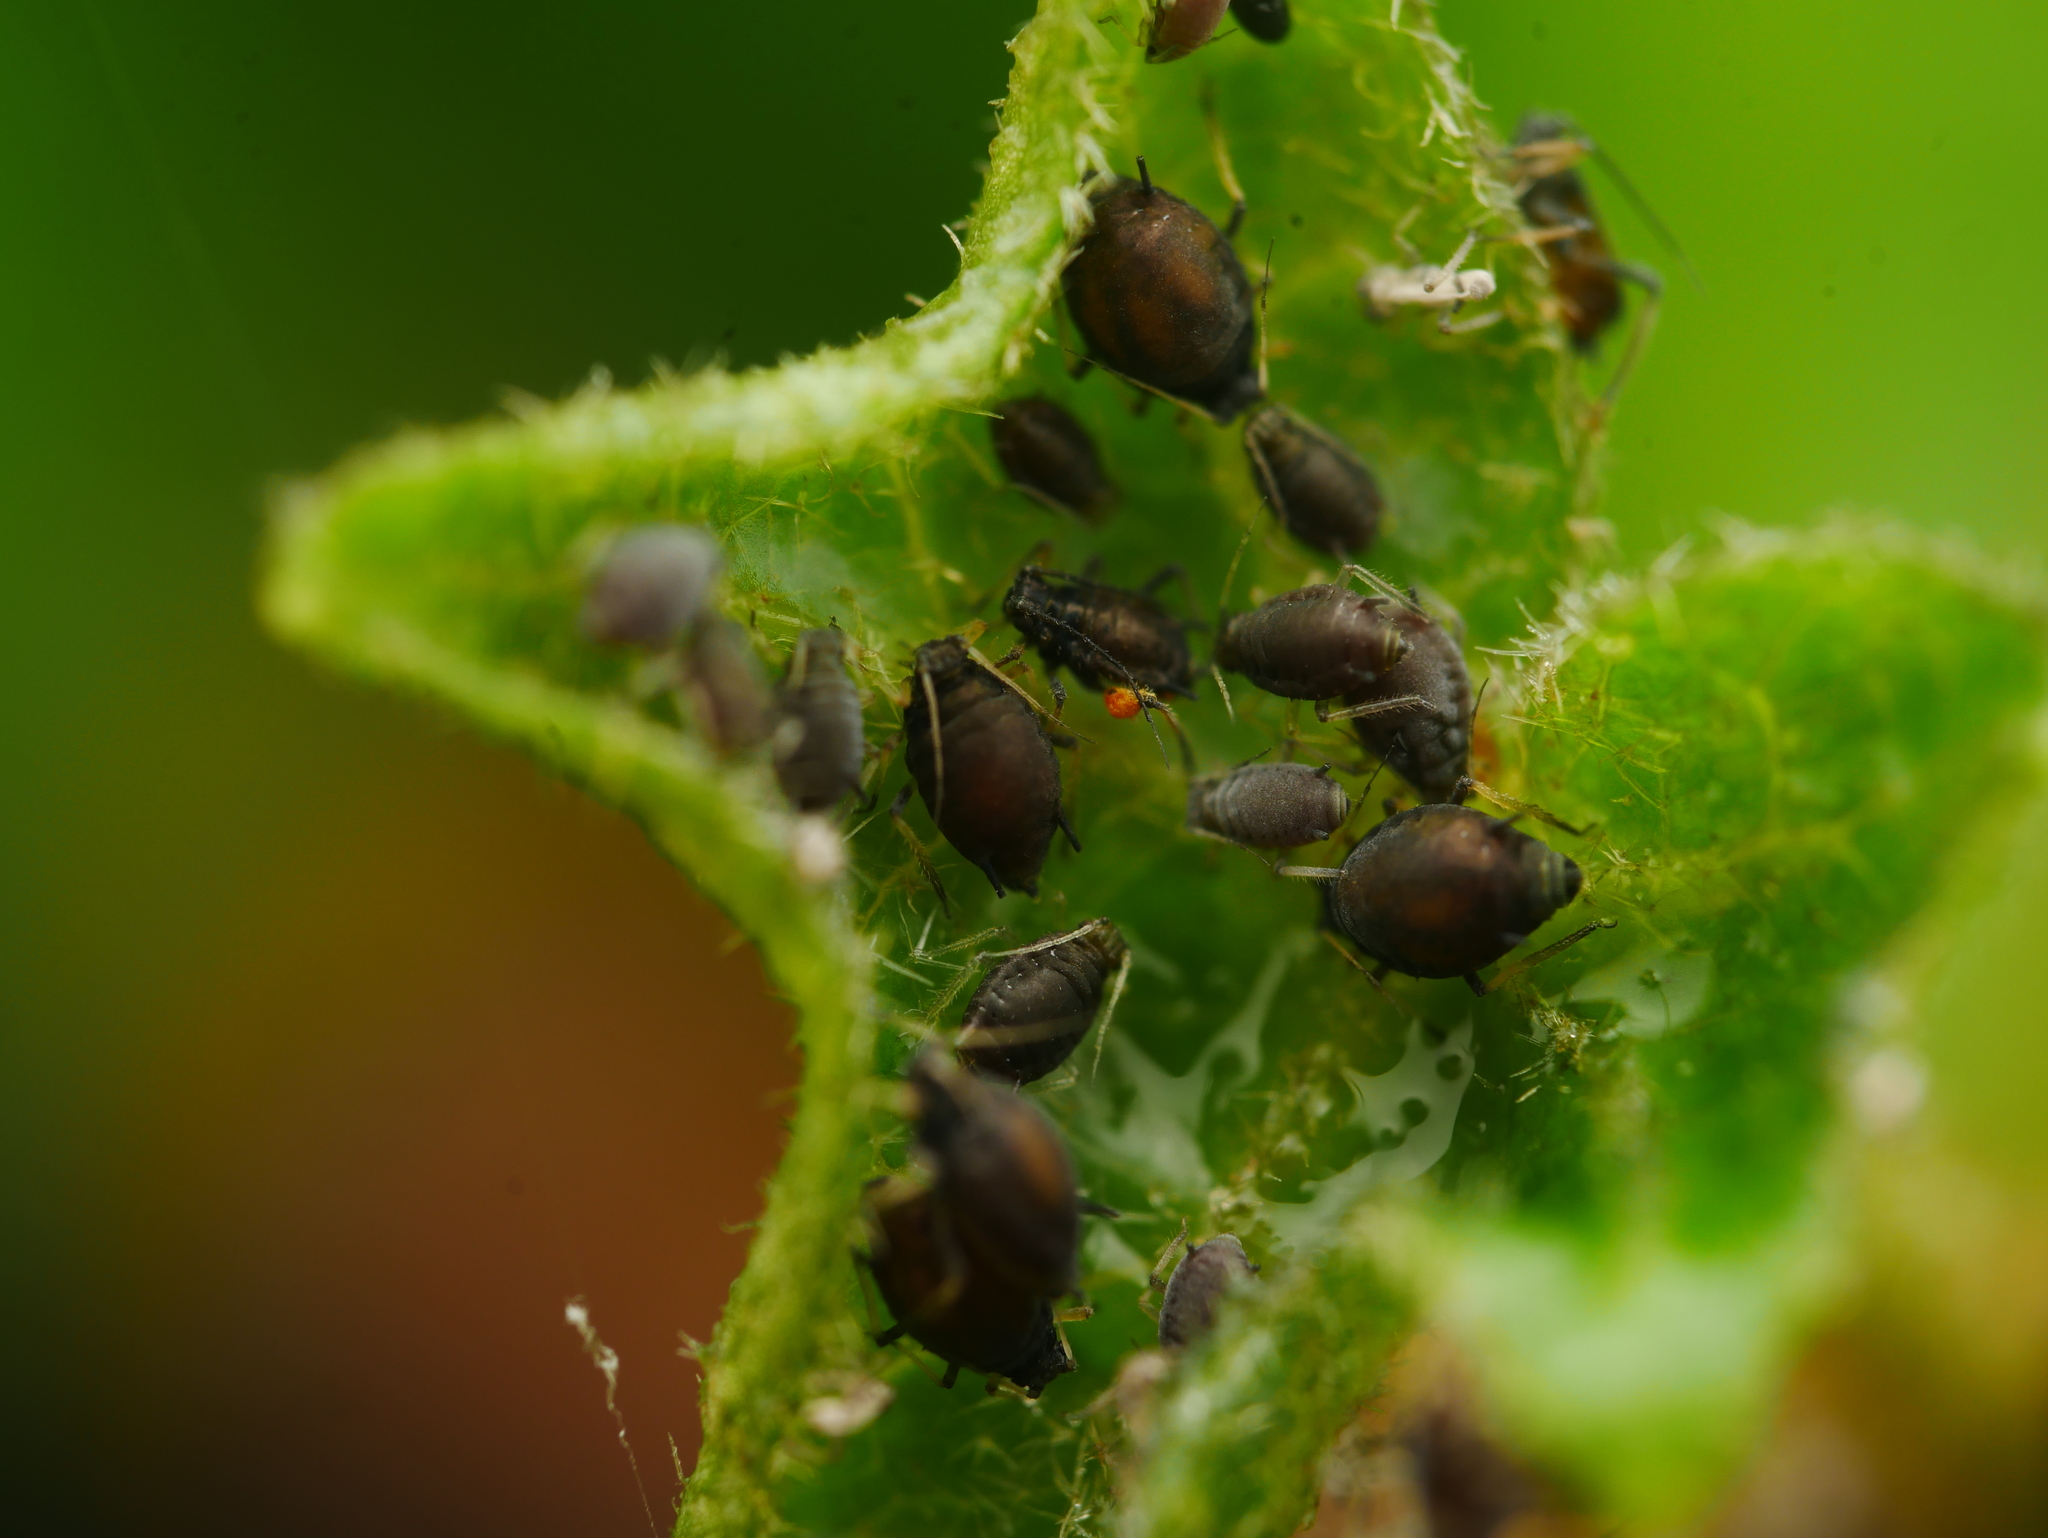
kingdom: Animalia
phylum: Arthropoda
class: Insecta
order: Hemiptera
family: Aphididae
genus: Aphis
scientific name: Aphis hederae
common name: Ivy aphid
